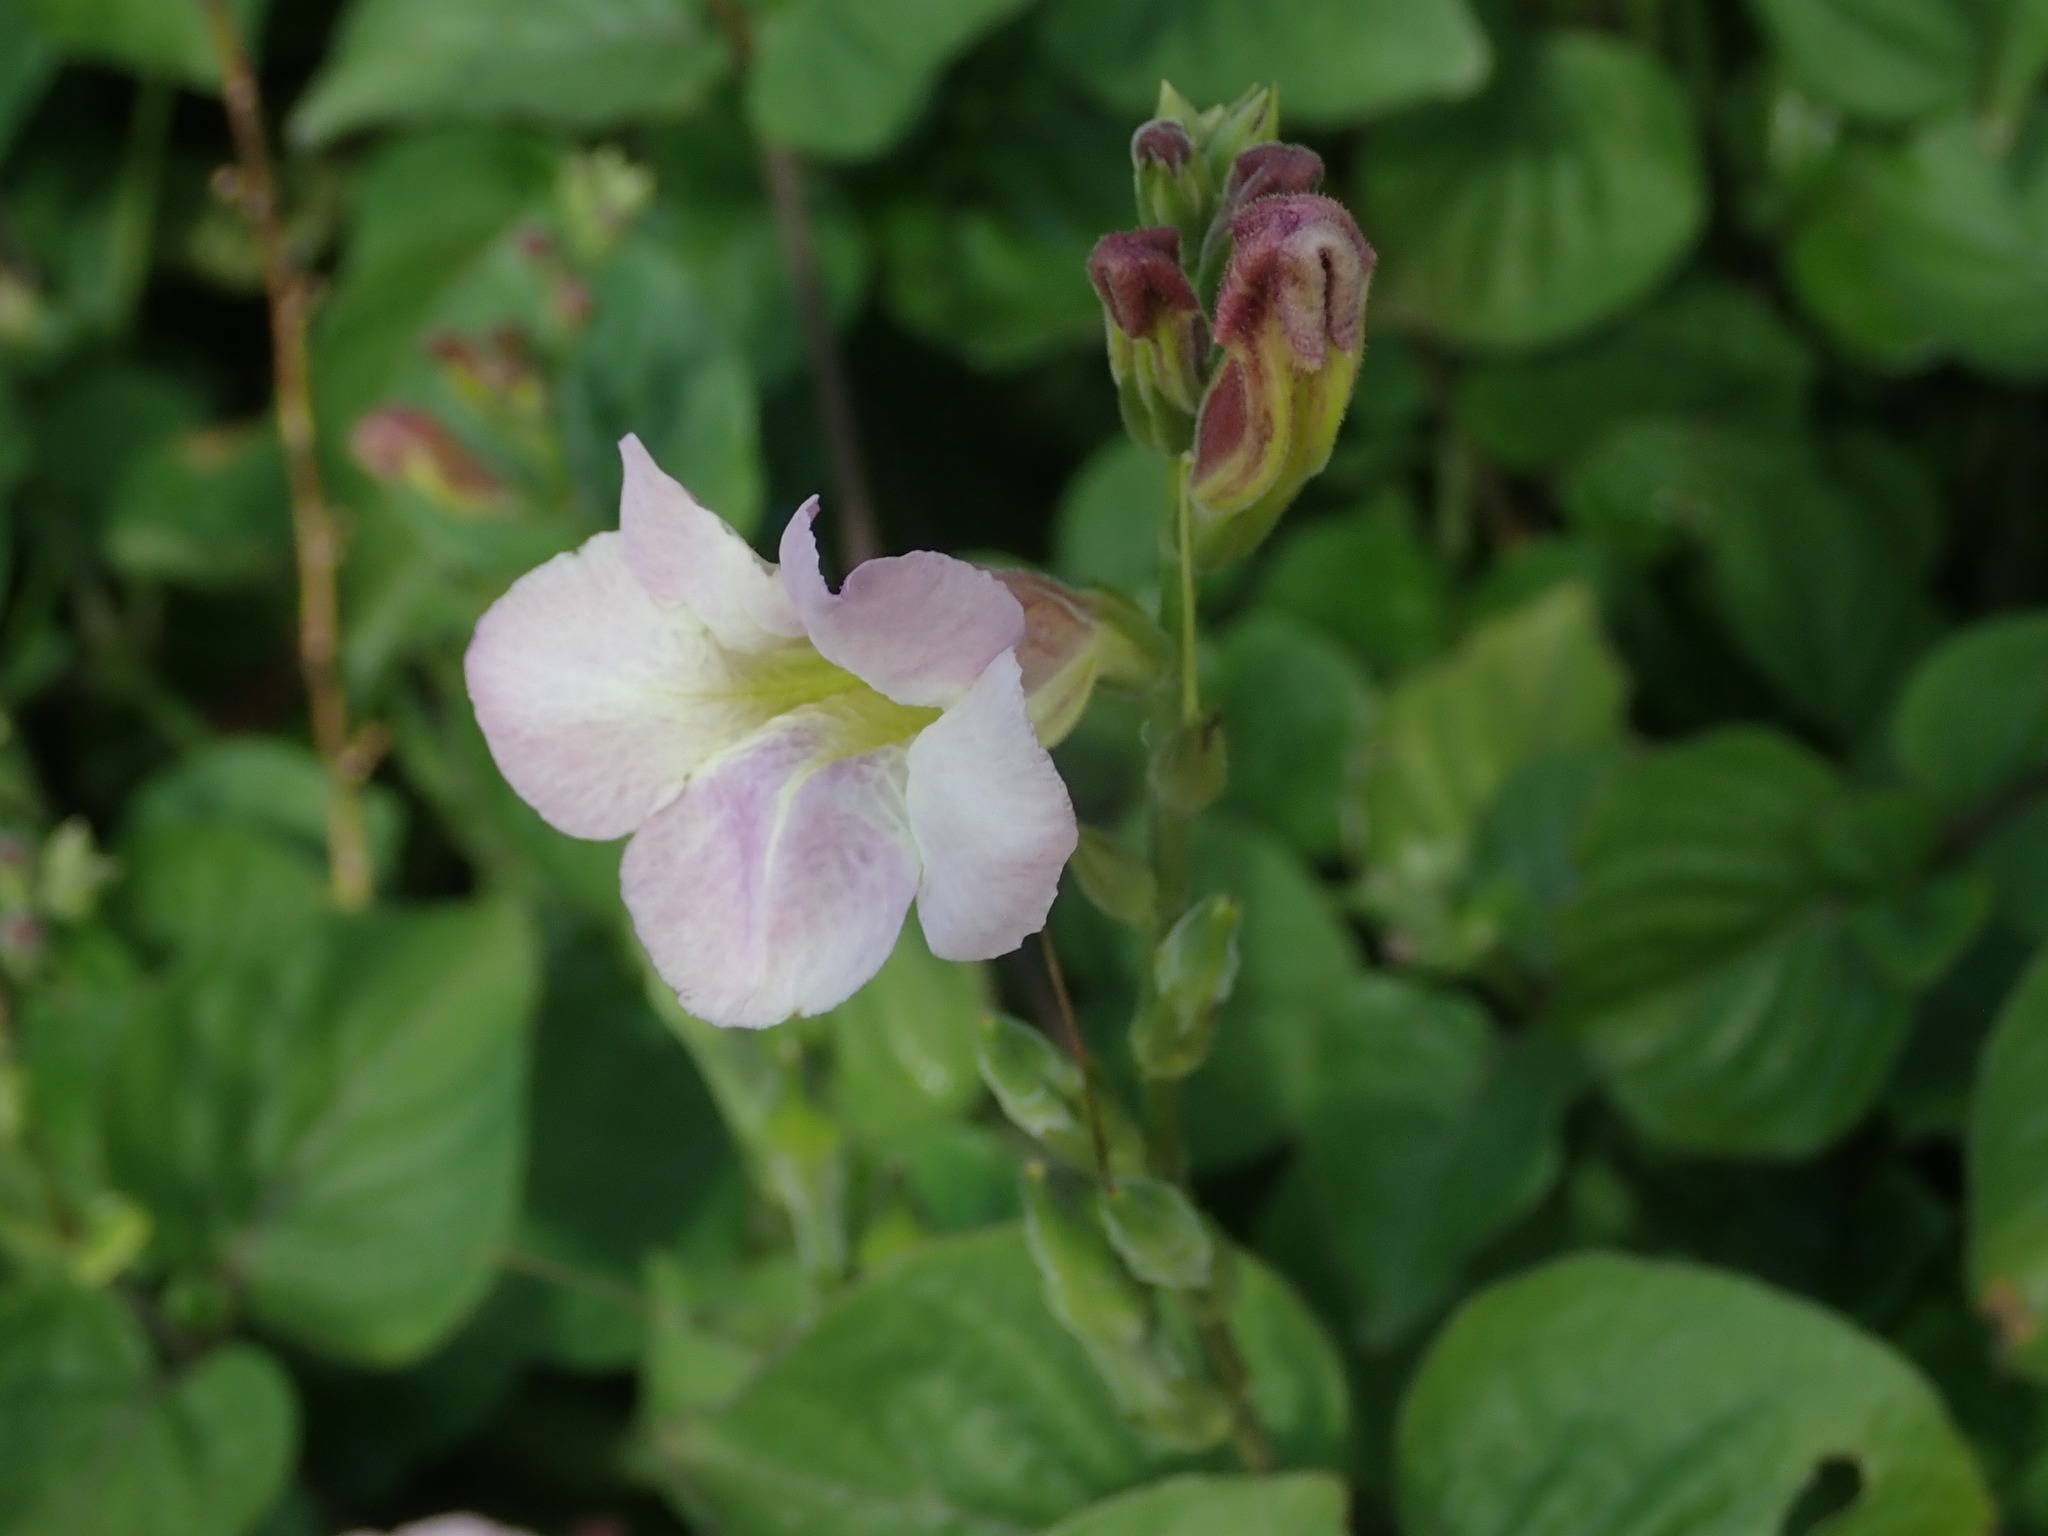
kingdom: Plantae
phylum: Tracheophyta
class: Magnoliopsida
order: Lamiales
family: Acanthaceae
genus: Asystasia
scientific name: Asystasia gangetica
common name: Chinese violet
